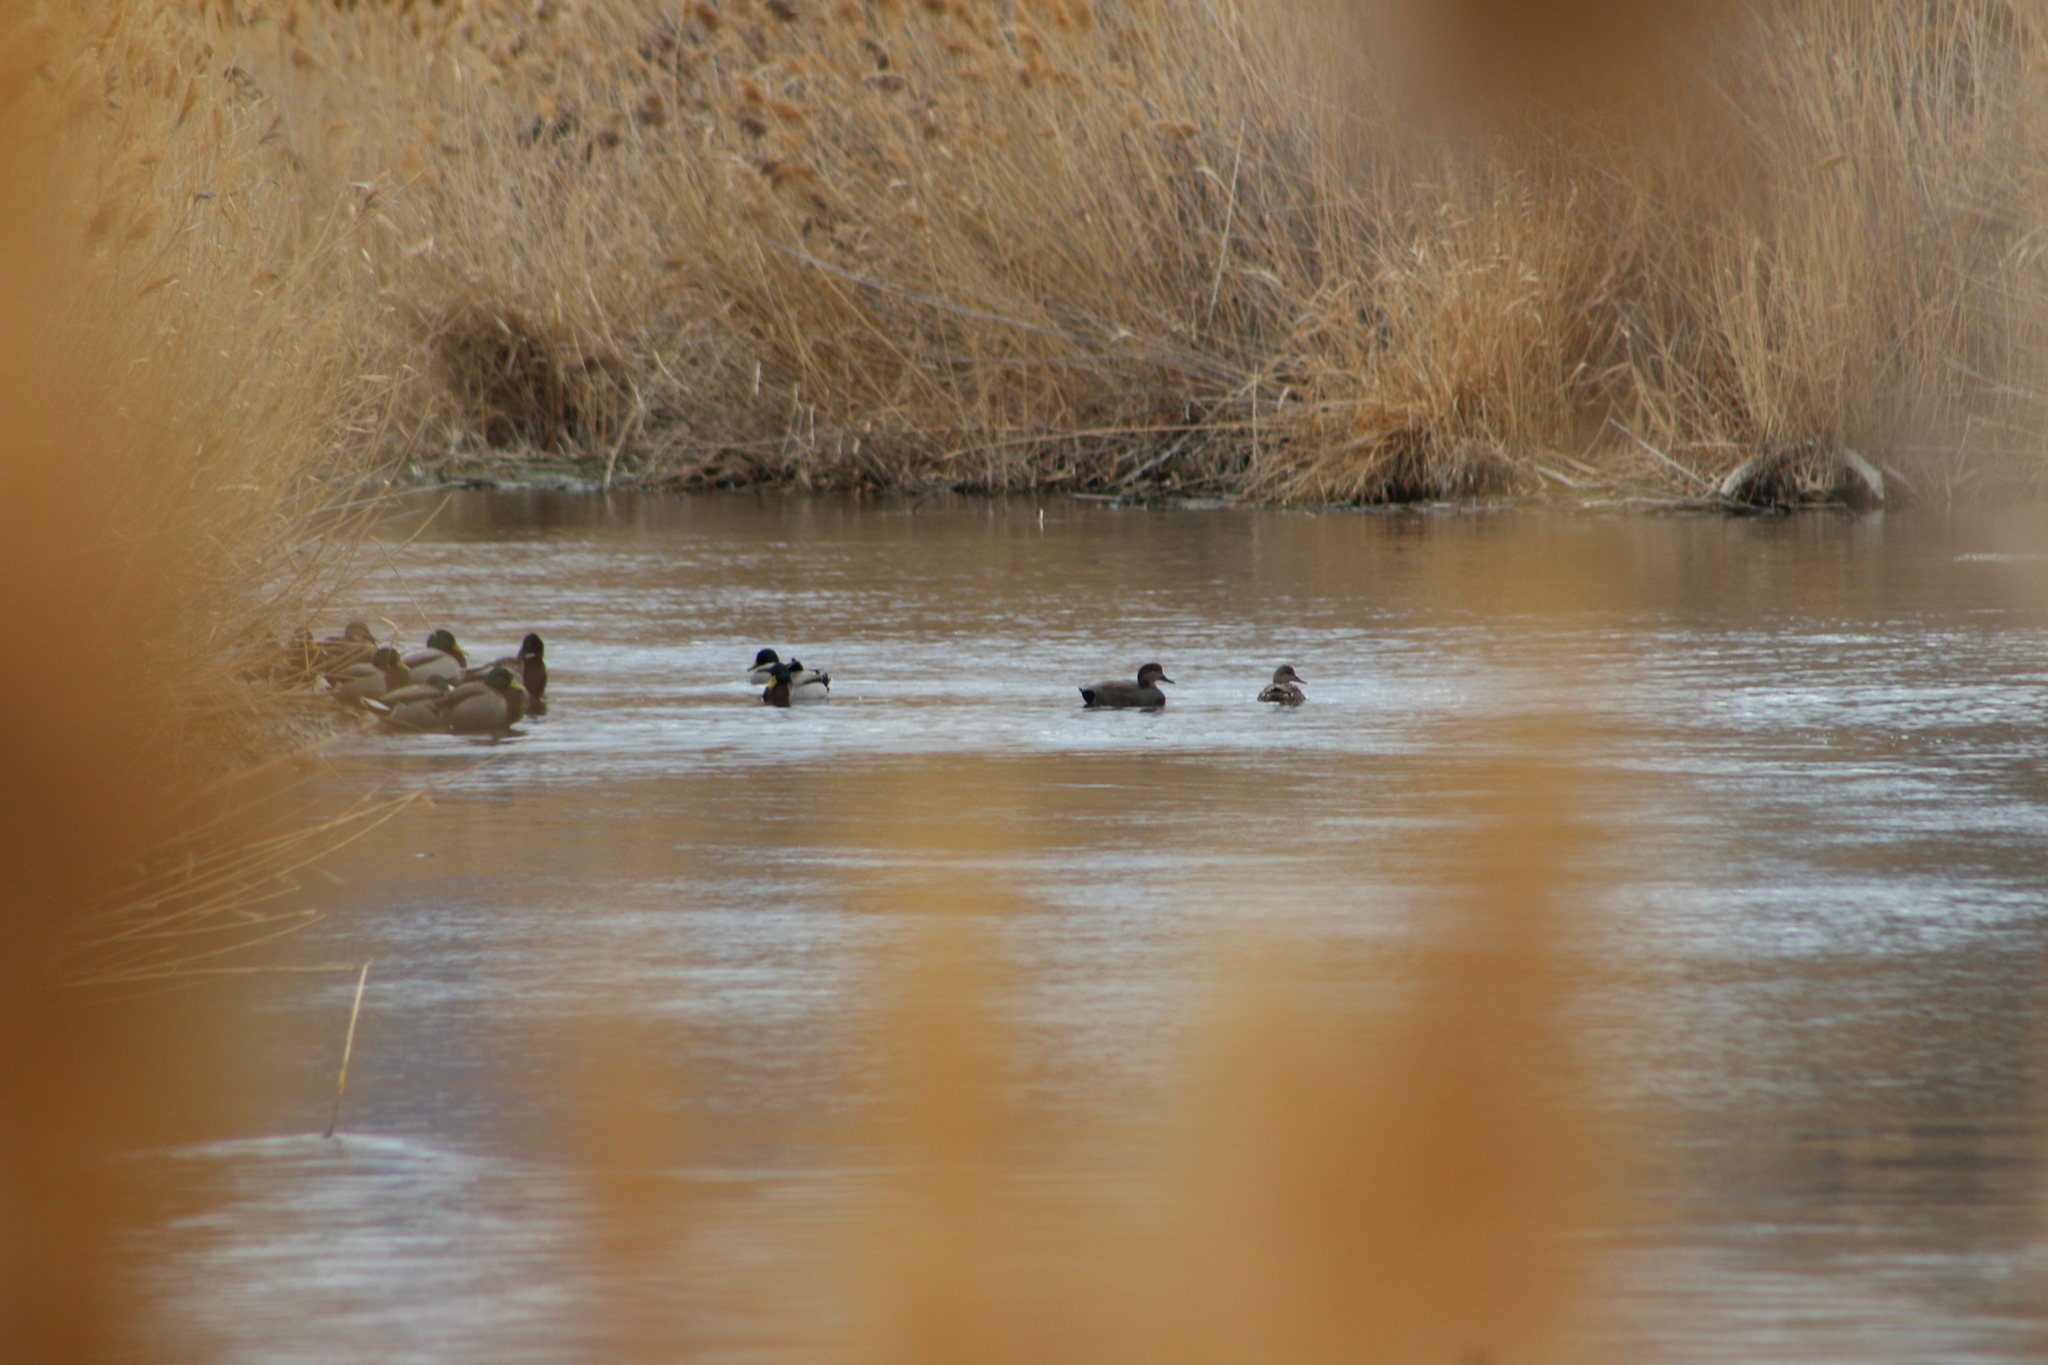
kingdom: Animalia
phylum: Chordata
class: Aves
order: Anseriformes
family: Anatidae
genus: Mareca
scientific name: Mareca strepera
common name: Gadwall
